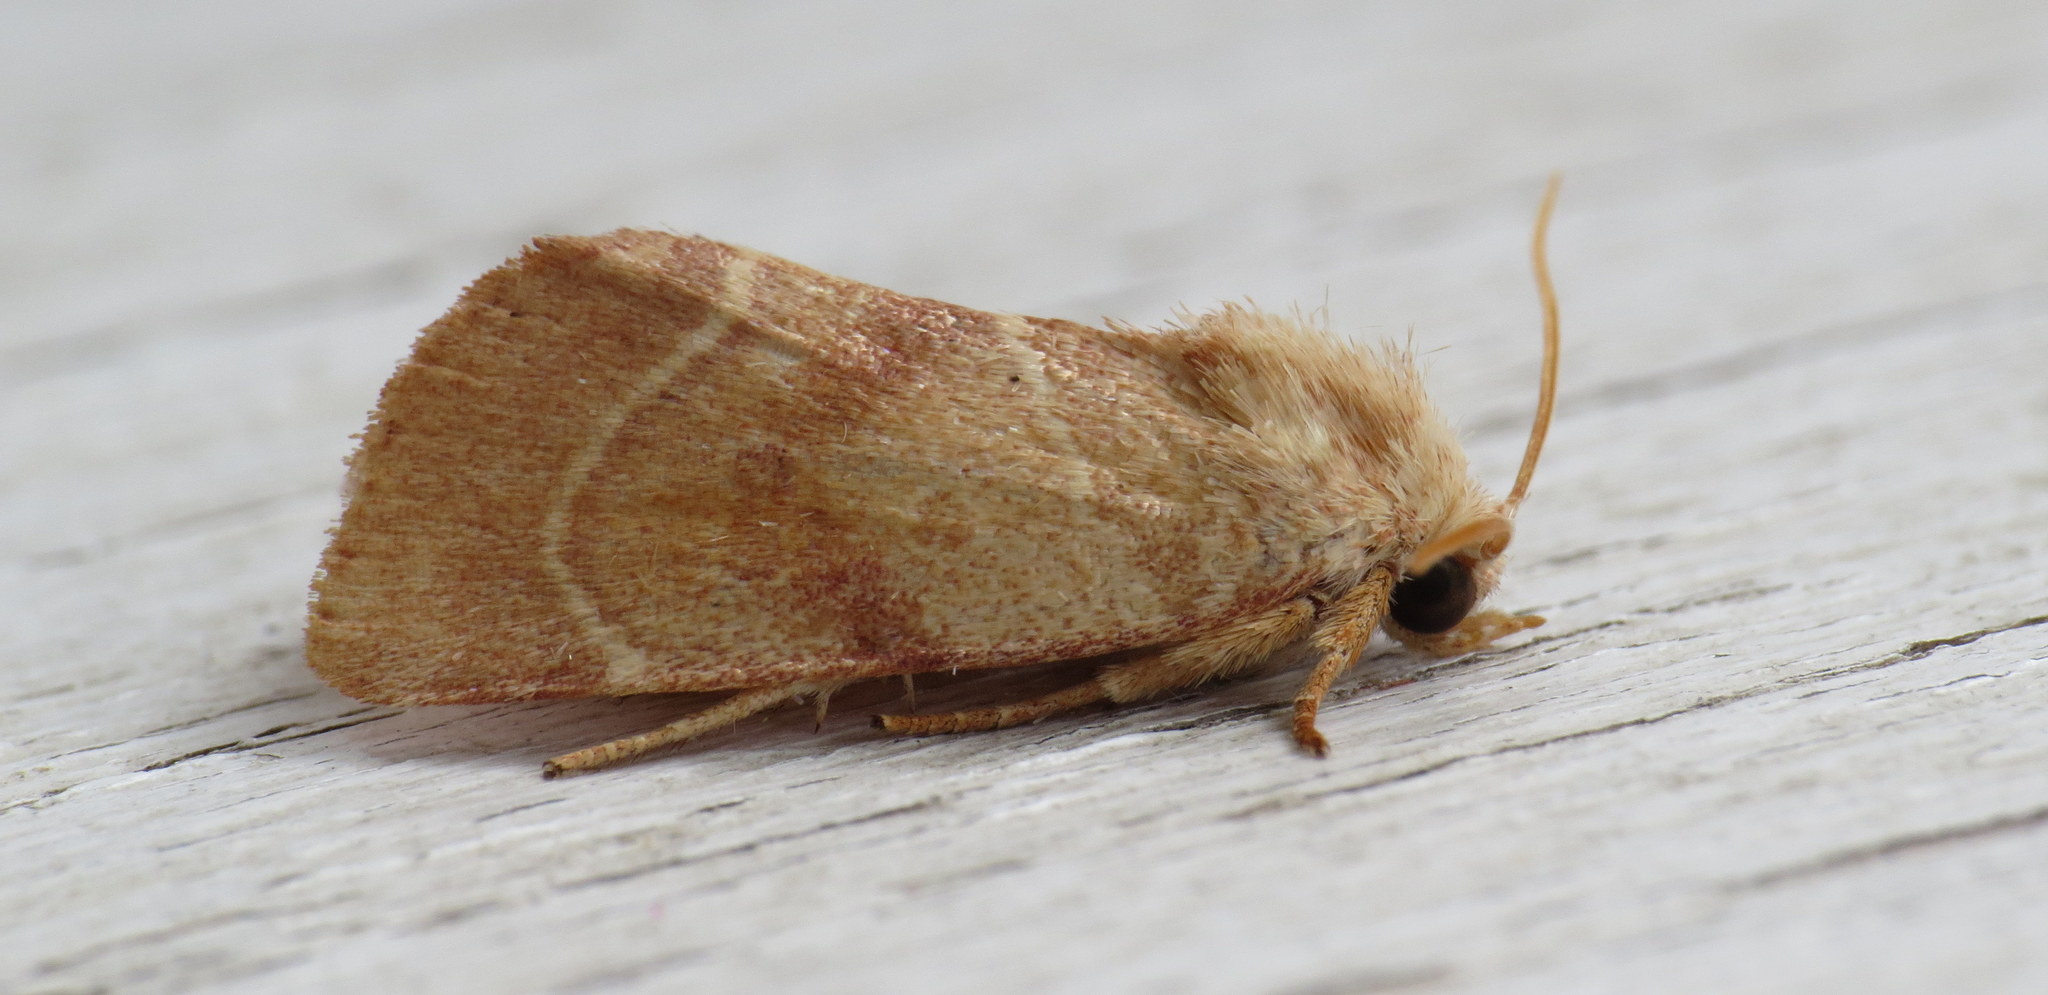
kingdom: Animalia
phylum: Arthropoda
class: Insecta
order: Lepidoptera
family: Noctuidae
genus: Cosmia
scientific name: Cosmia calami
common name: American dun-bar moth
